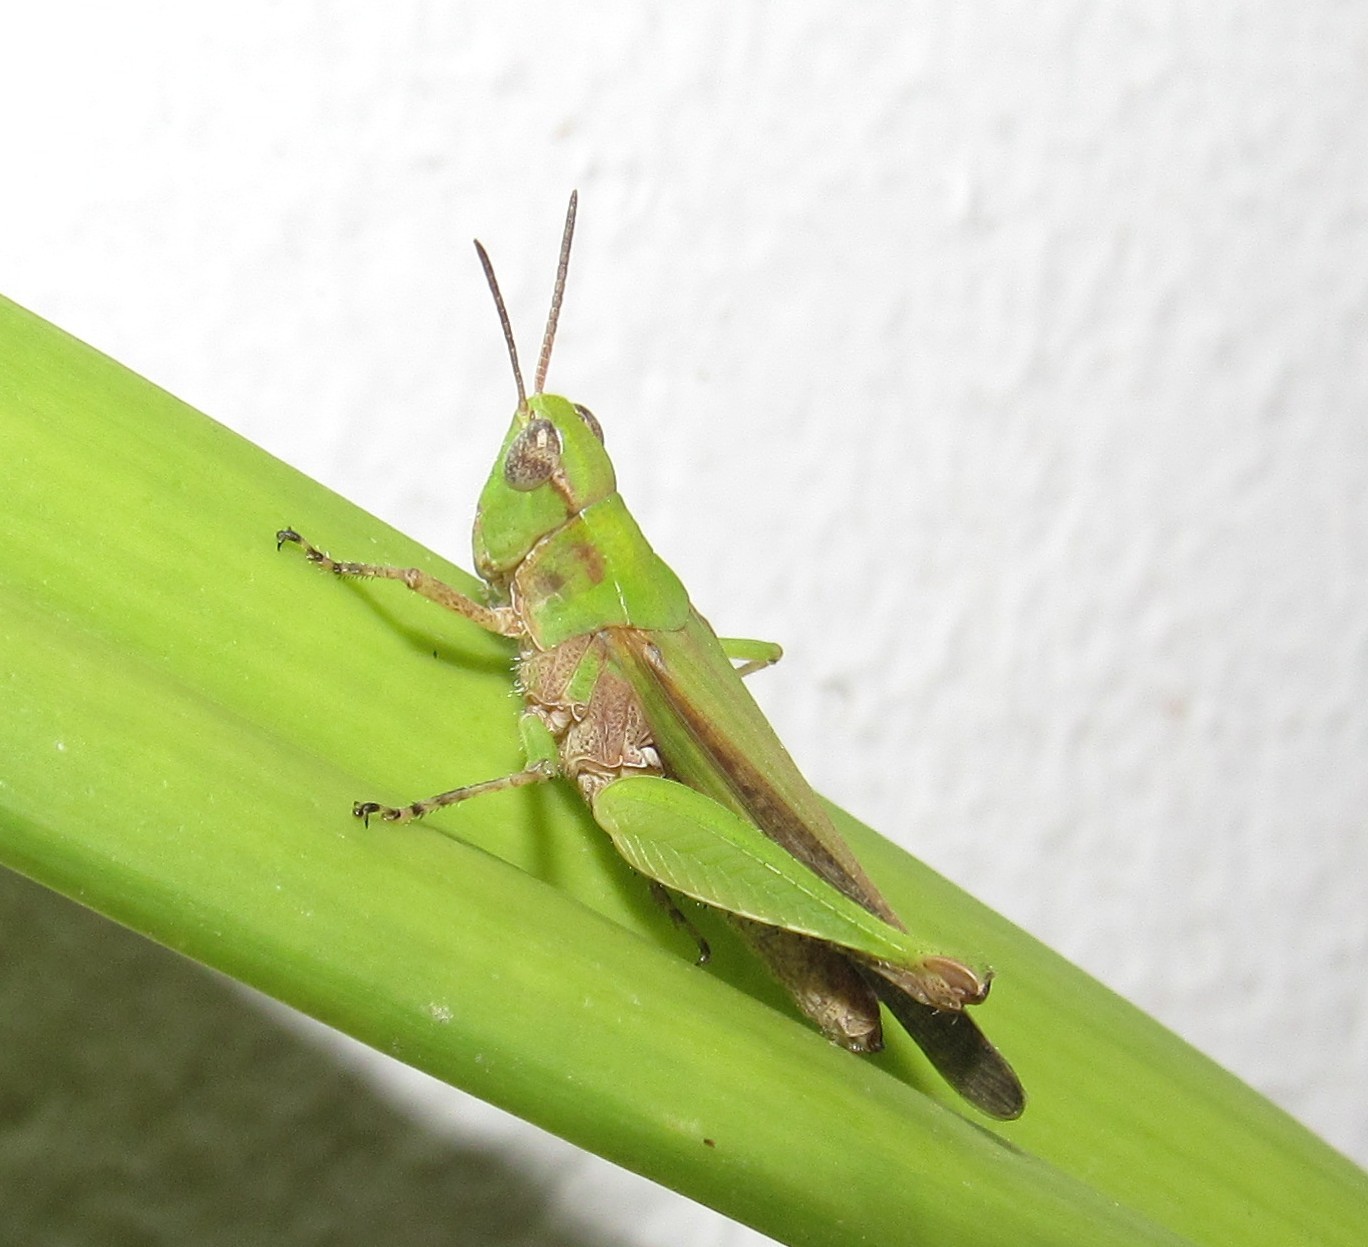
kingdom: Animalia
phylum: Arthropoda
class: Insecta
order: Orthoptera
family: Acrididae
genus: Orphulella
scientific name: Orphulella punctata
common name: Slant-faced grasshopper
